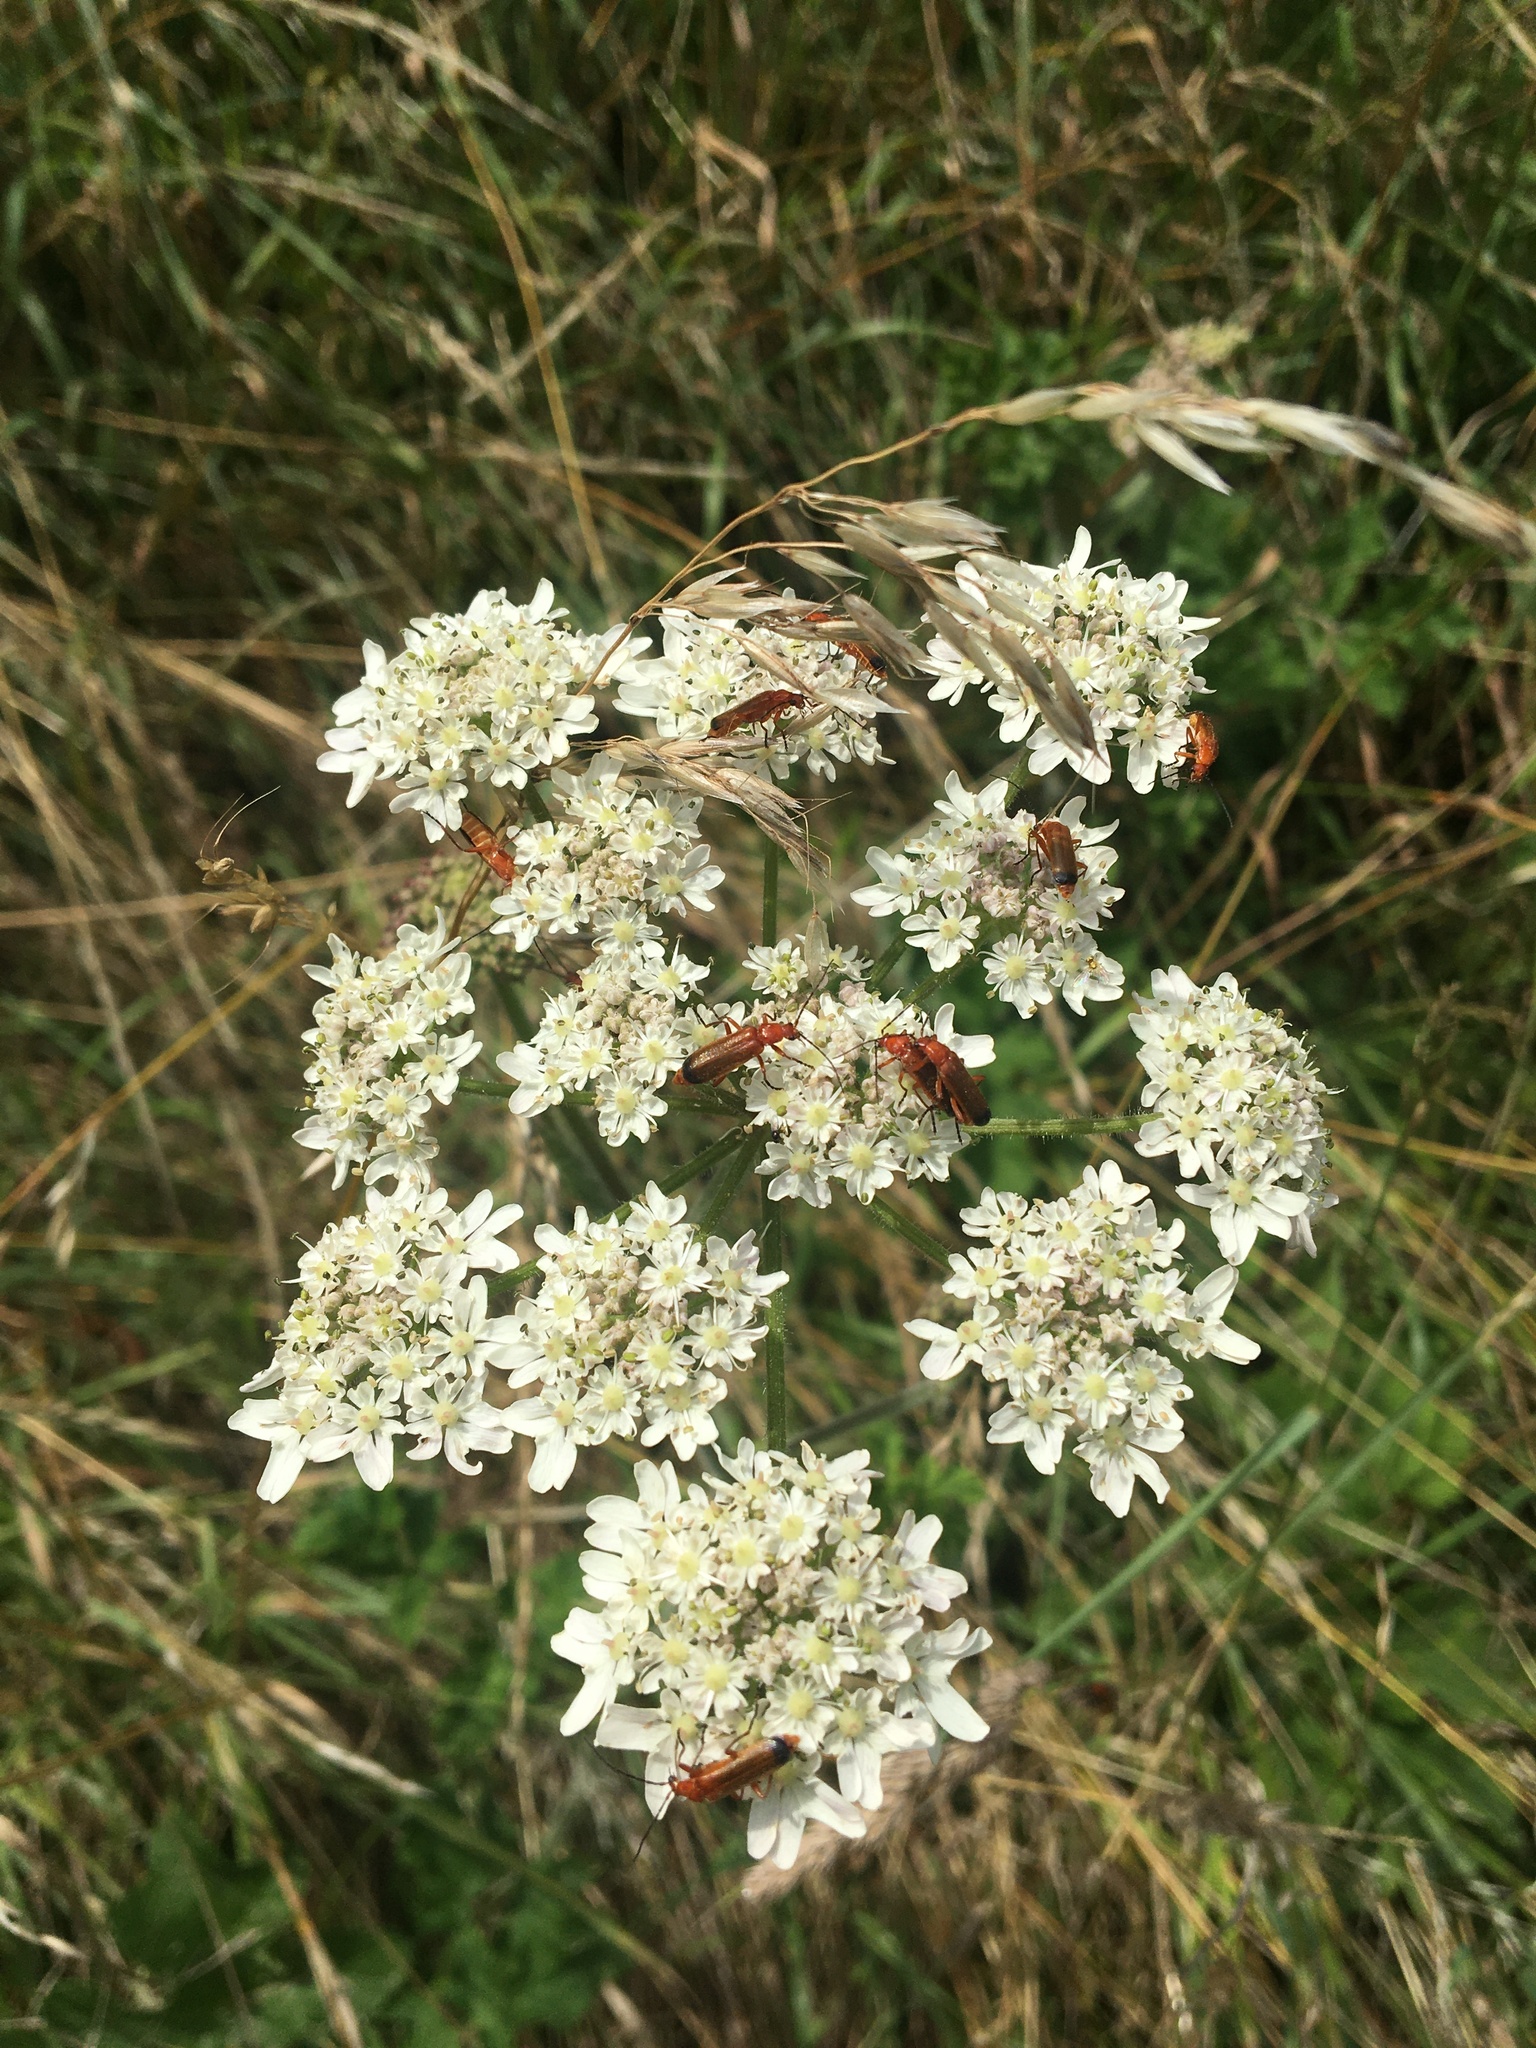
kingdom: Animalia
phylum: Arthropoda
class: Insecta
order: Coleoptera
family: Cantharidae
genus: Rhagonycha
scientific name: Rhagonycha fulva
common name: Common red soldier beetle
